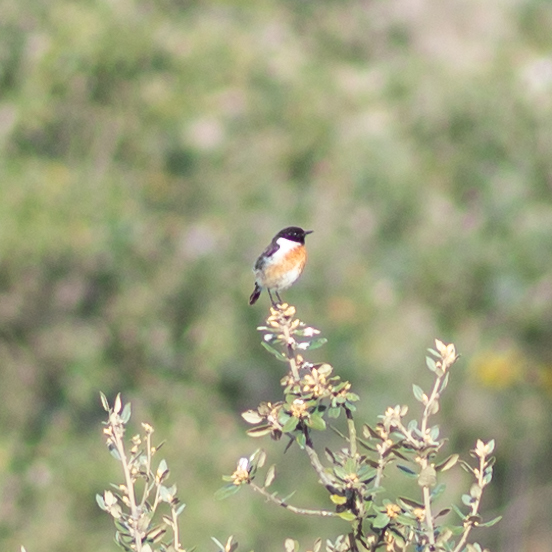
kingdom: Animalia
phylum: Chordata
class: Aves
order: Passeriformes
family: Muscicapidae
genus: Saxicola
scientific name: Saxicola rubicola
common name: European stonechat
